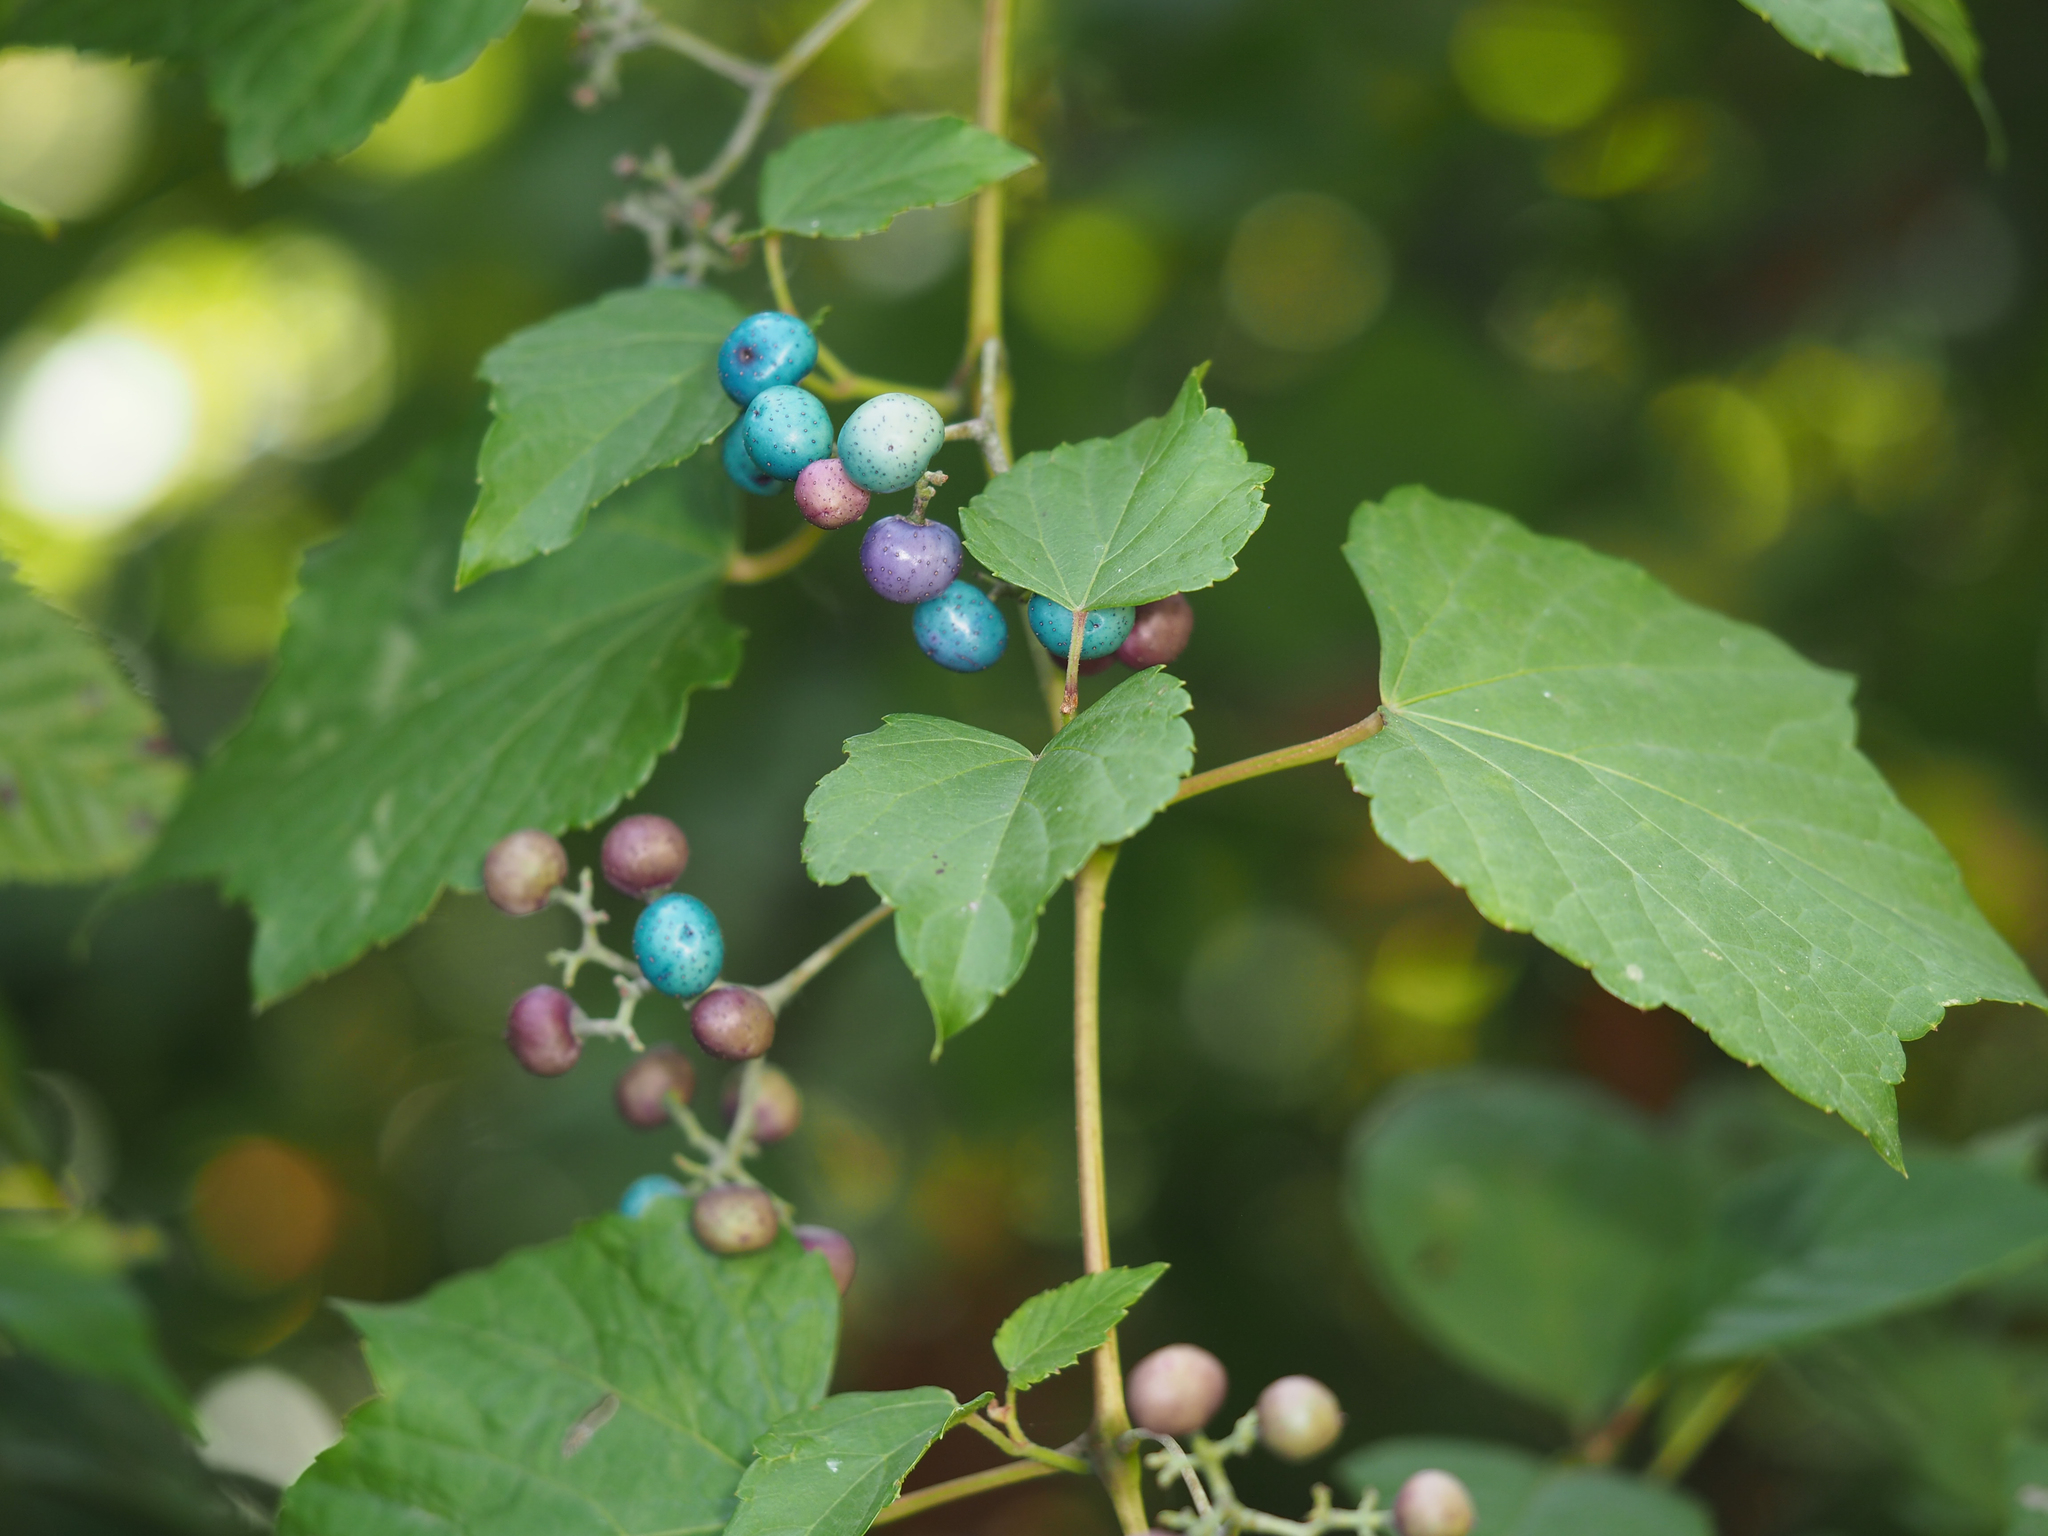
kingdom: Plantae
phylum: Tracheophyta
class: Magnoliopsida
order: Vitales
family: Vitaceae
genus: Ampelopsis
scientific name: Ampelopsis glandulosa
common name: Amur peppervine
